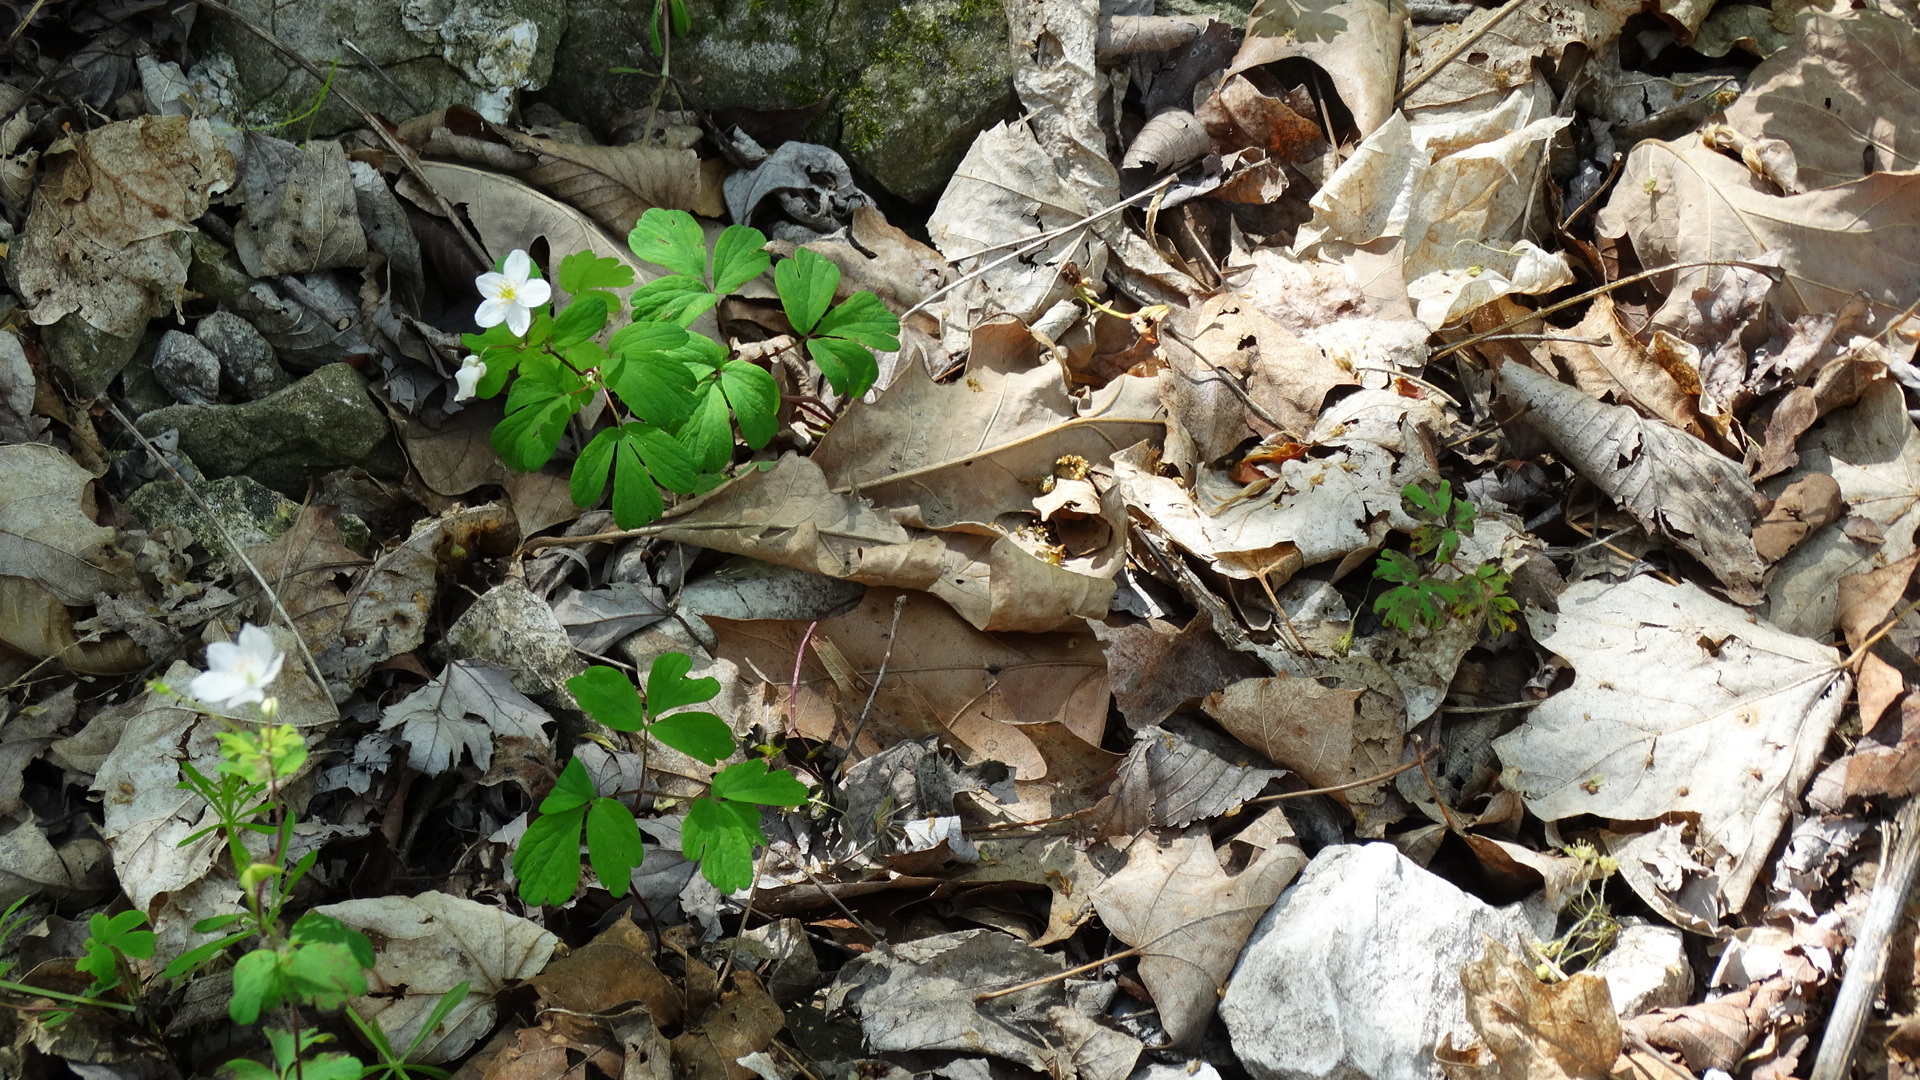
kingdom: Plantae
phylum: Tracheophyta
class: Magnoliopsida
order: Ranunculales
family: Ranunculaceae
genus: Enemion
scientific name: Enemion biternatum
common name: Eastern false rue-anemone
